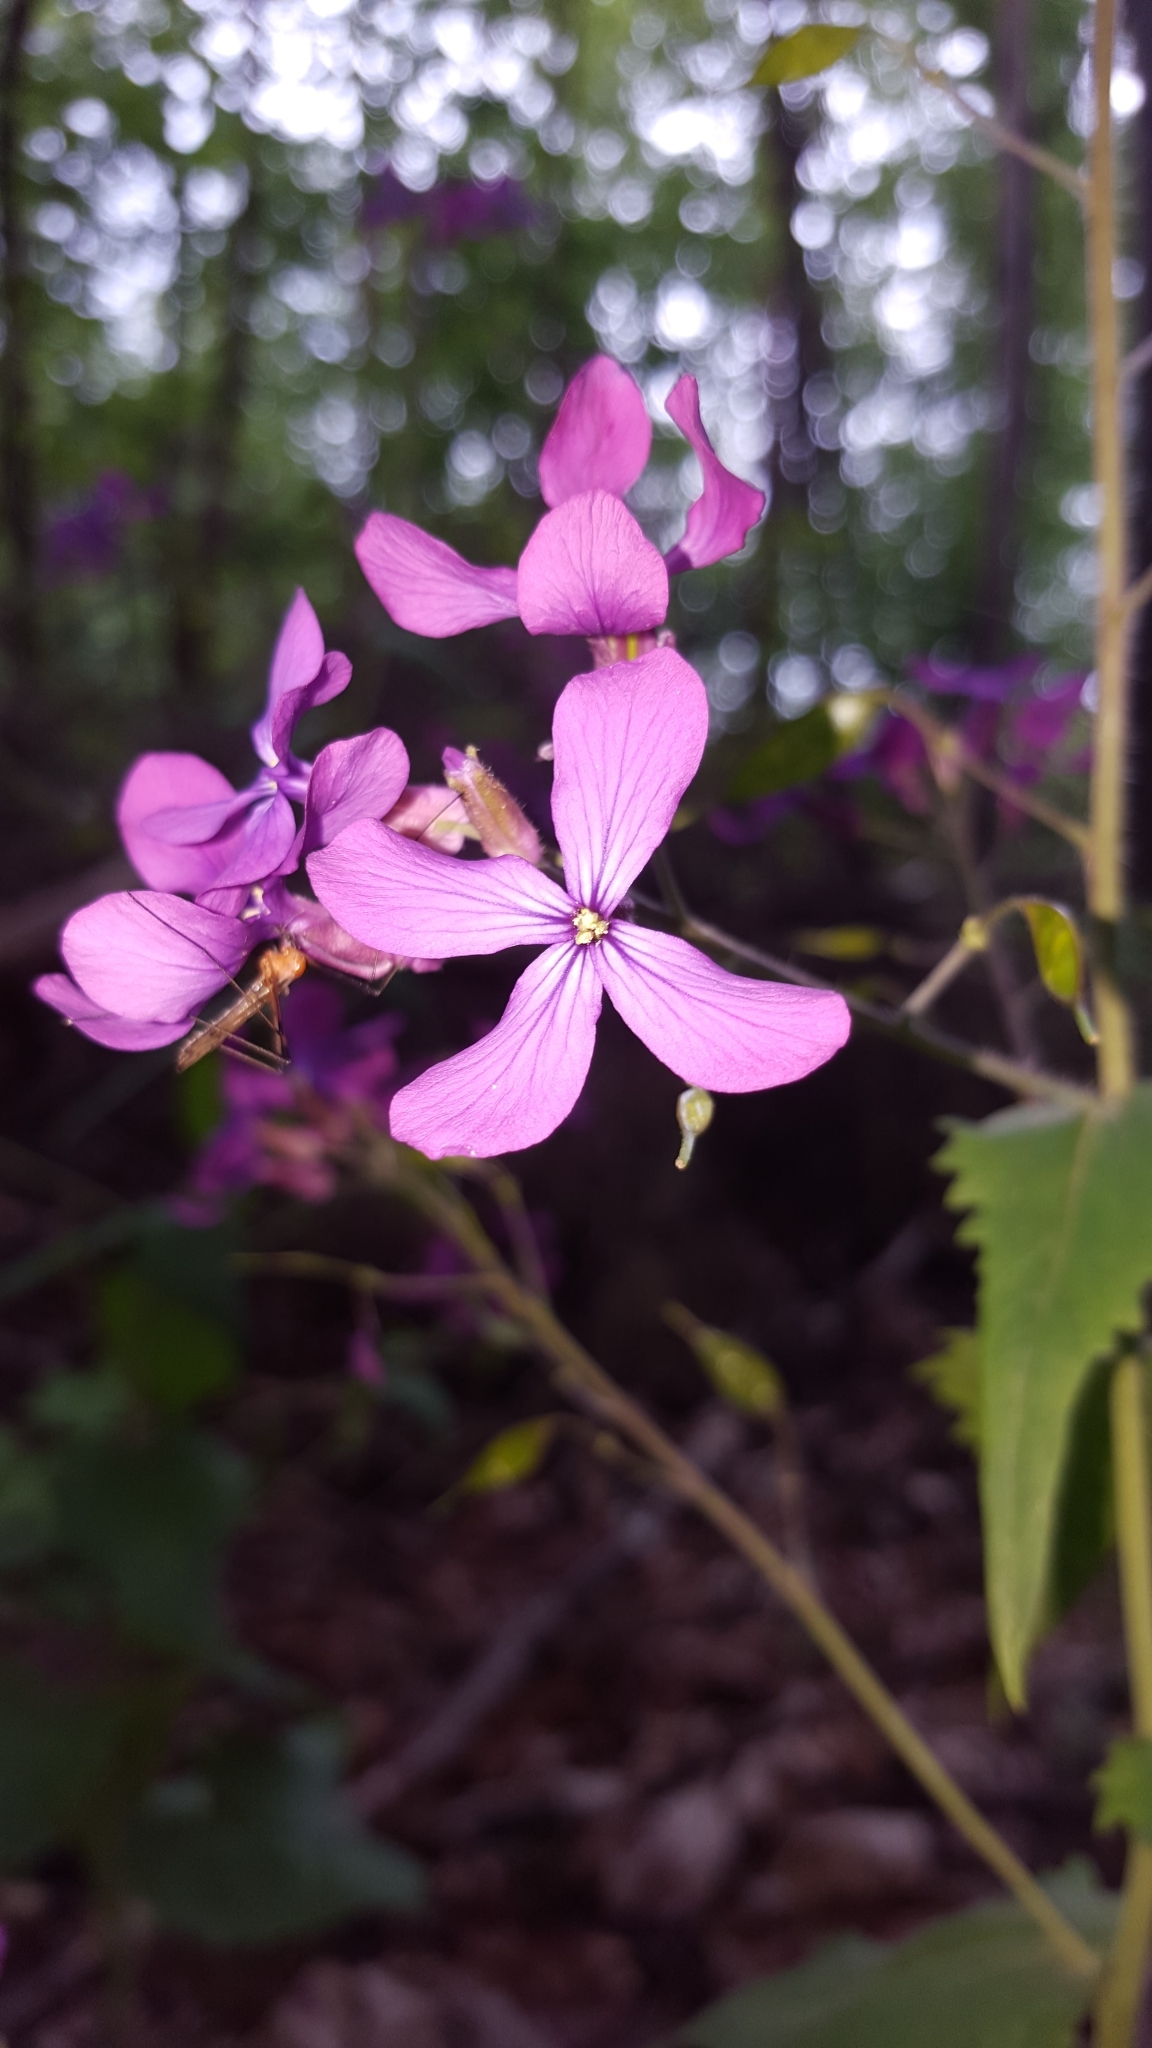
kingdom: Plantae
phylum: Tracheophyta
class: Magnoliopsida
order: Brassicales
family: Brassicaceae
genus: Lunaria
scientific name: Lunaria annua
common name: Honesty
